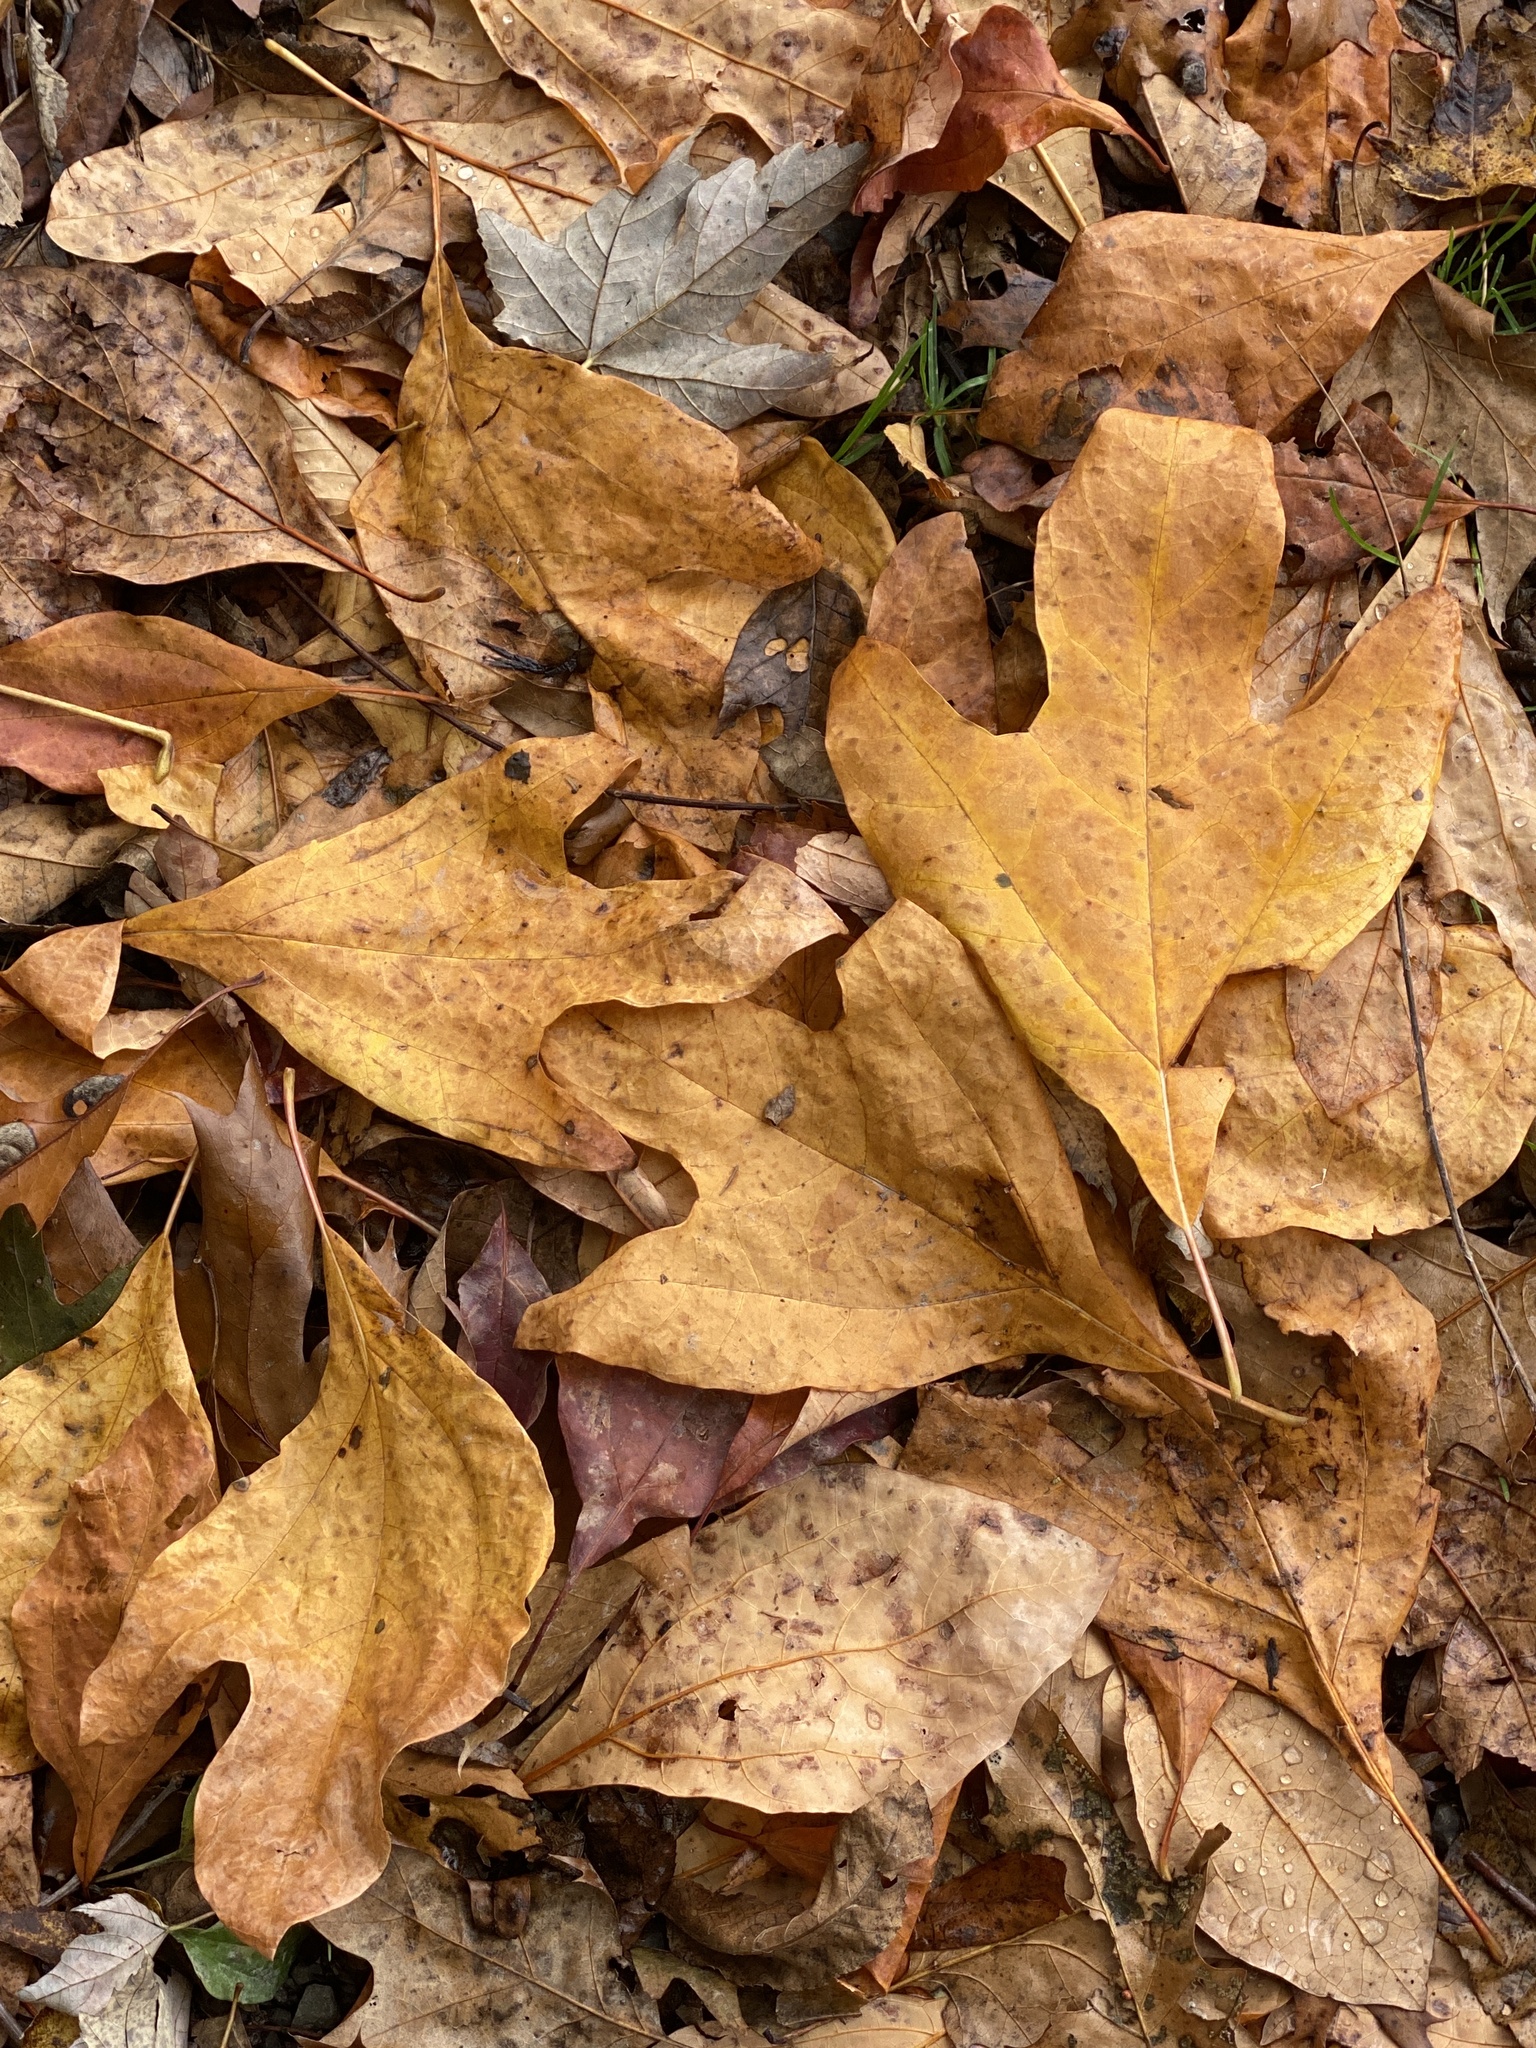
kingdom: Plantae
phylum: Tracheophyta
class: Magnoliopsida
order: Laurales
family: Lauraceae
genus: Sassafras
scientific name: Sassafras albidum
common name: Sassafras
